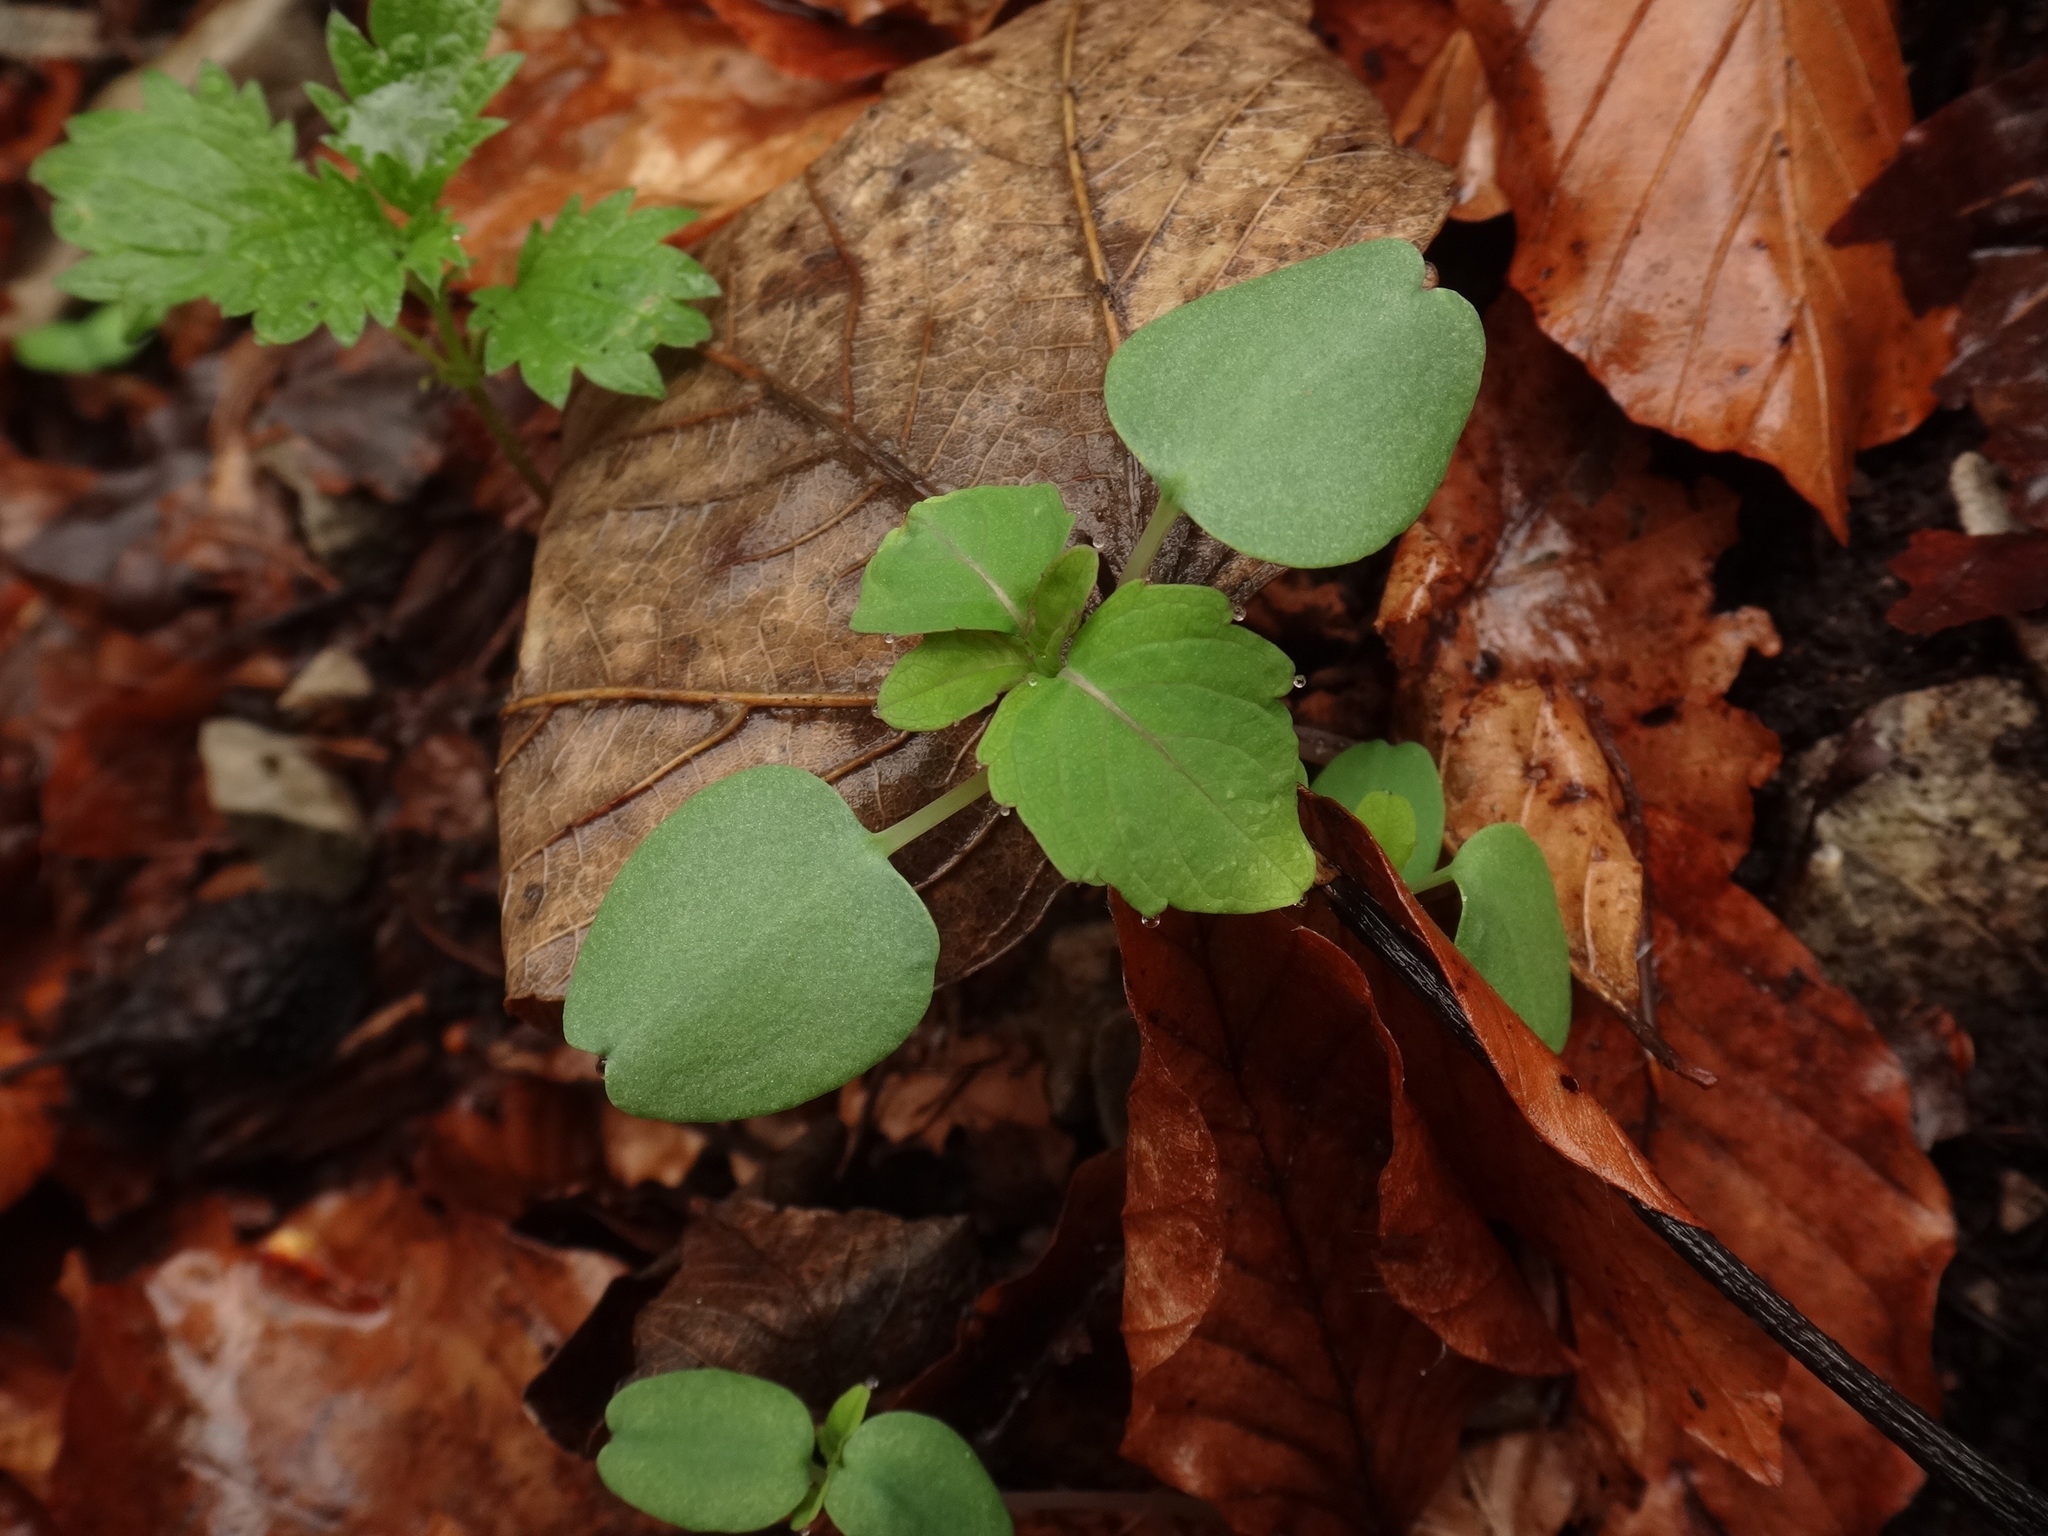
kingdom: Plantae
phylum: Tracheophyta
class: Magnoliopsida
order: Ericales
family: Balsaminaceae
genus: Impatiens
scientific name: Impatiens noli-tangere
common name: Touch-me-not balsam
